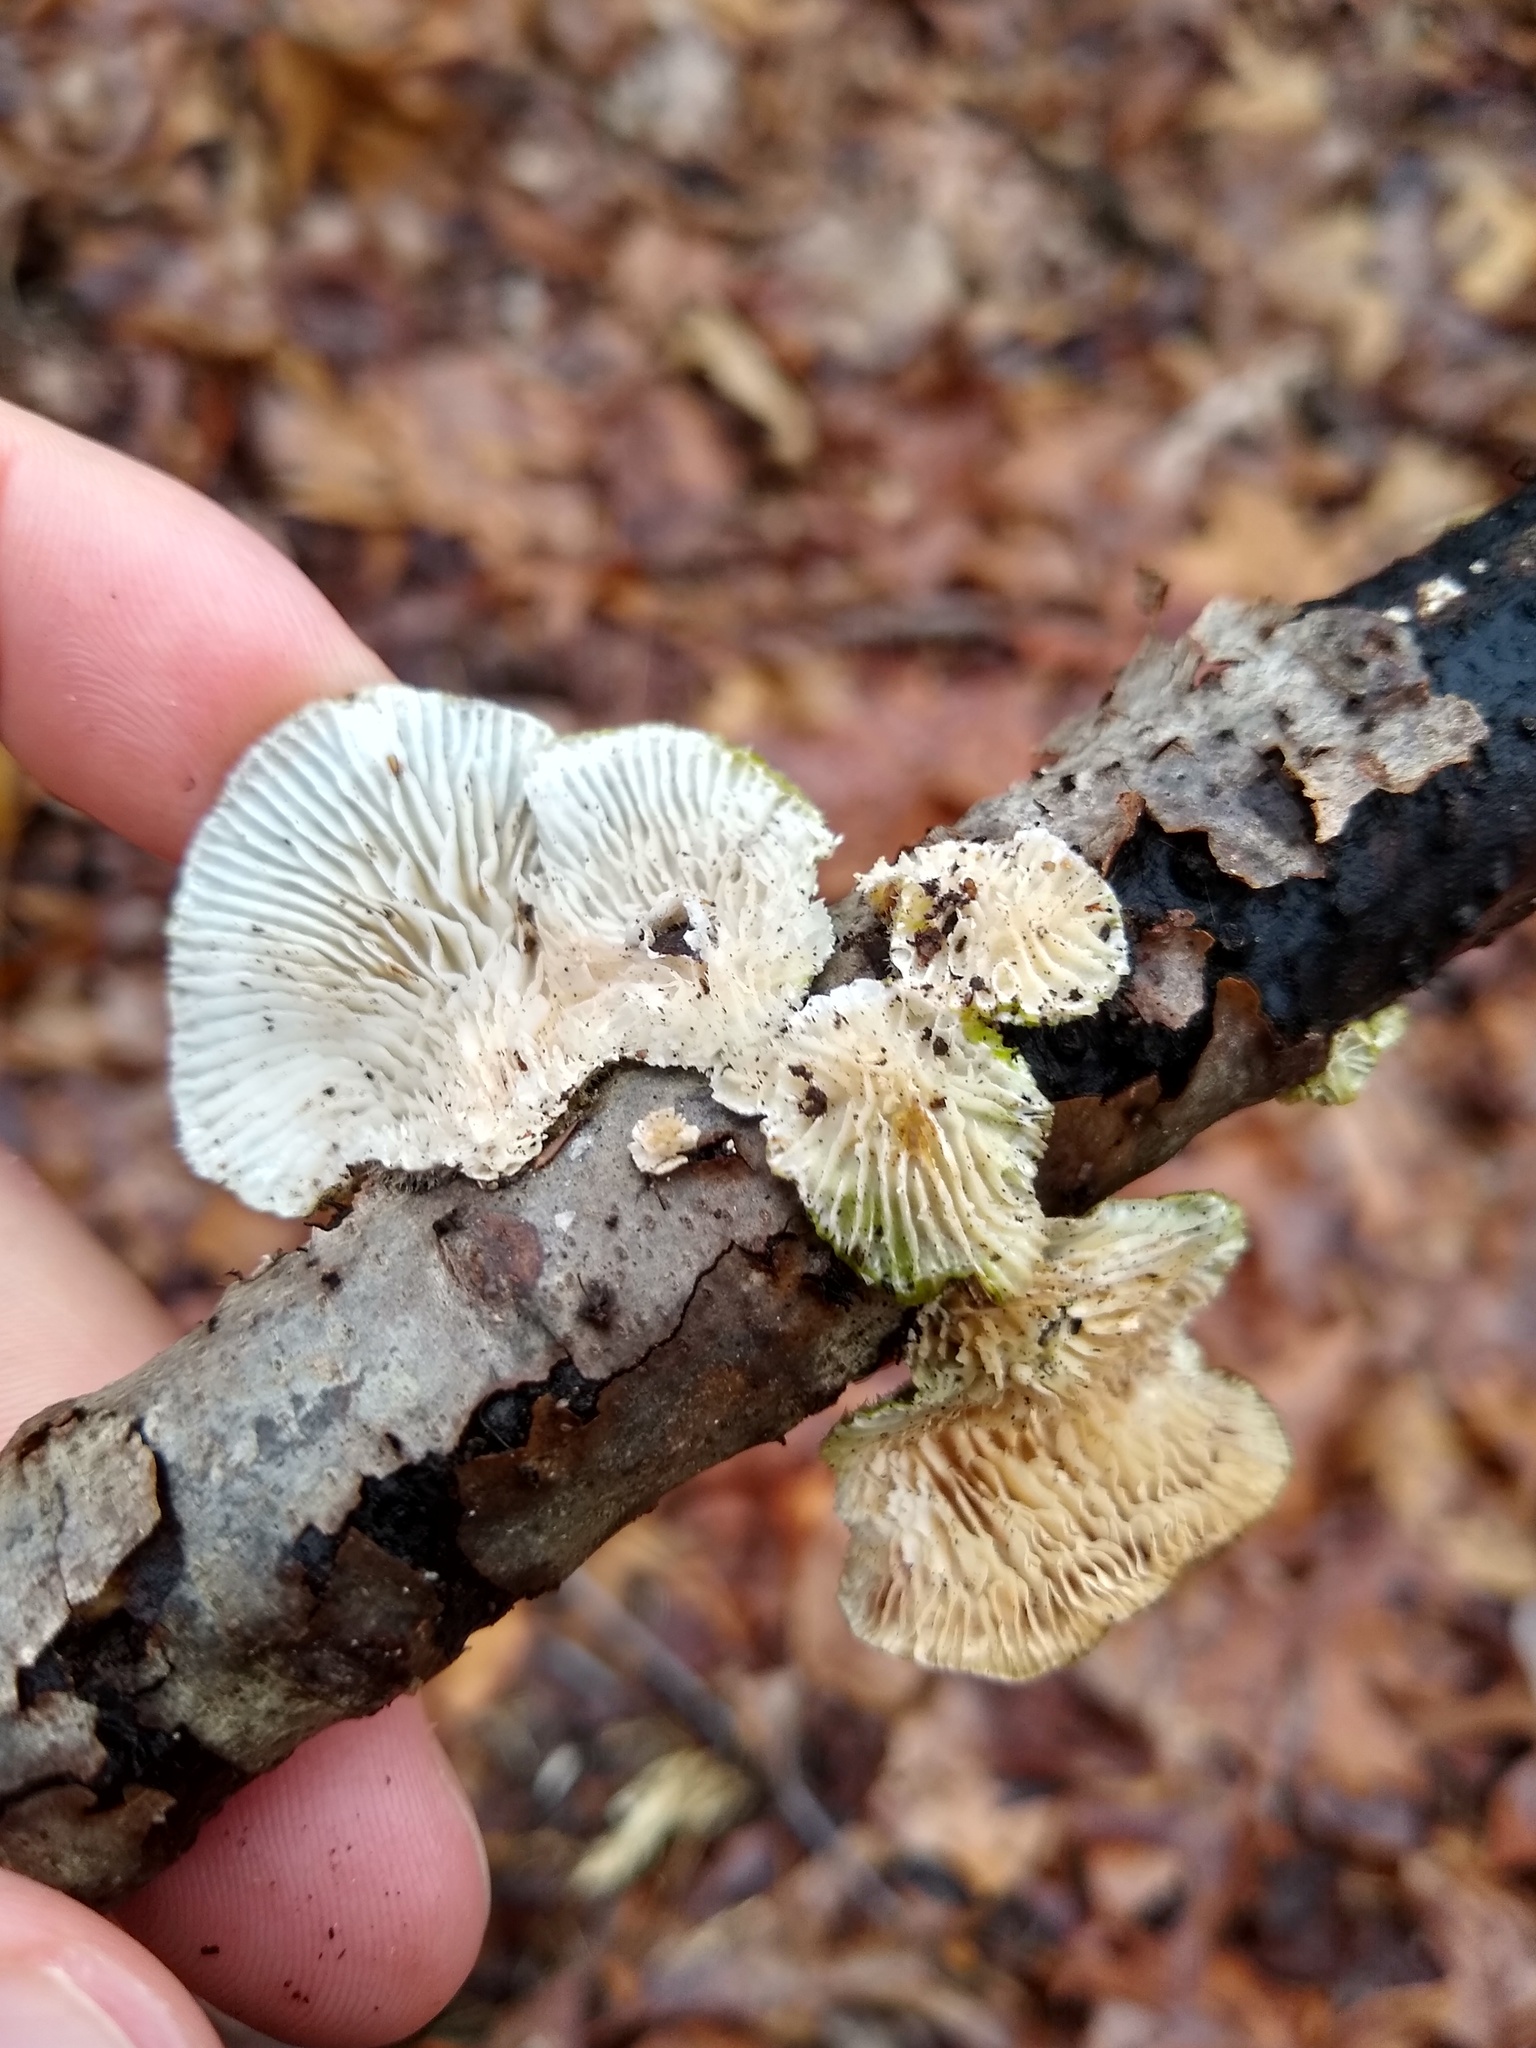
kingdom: Fungi
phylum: Basidiomycota
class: Agaricomycetes
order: Polyporales
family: Polyporaceae
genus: Lenzites
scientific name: Lenzites betulinus
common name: Birch mazegill
